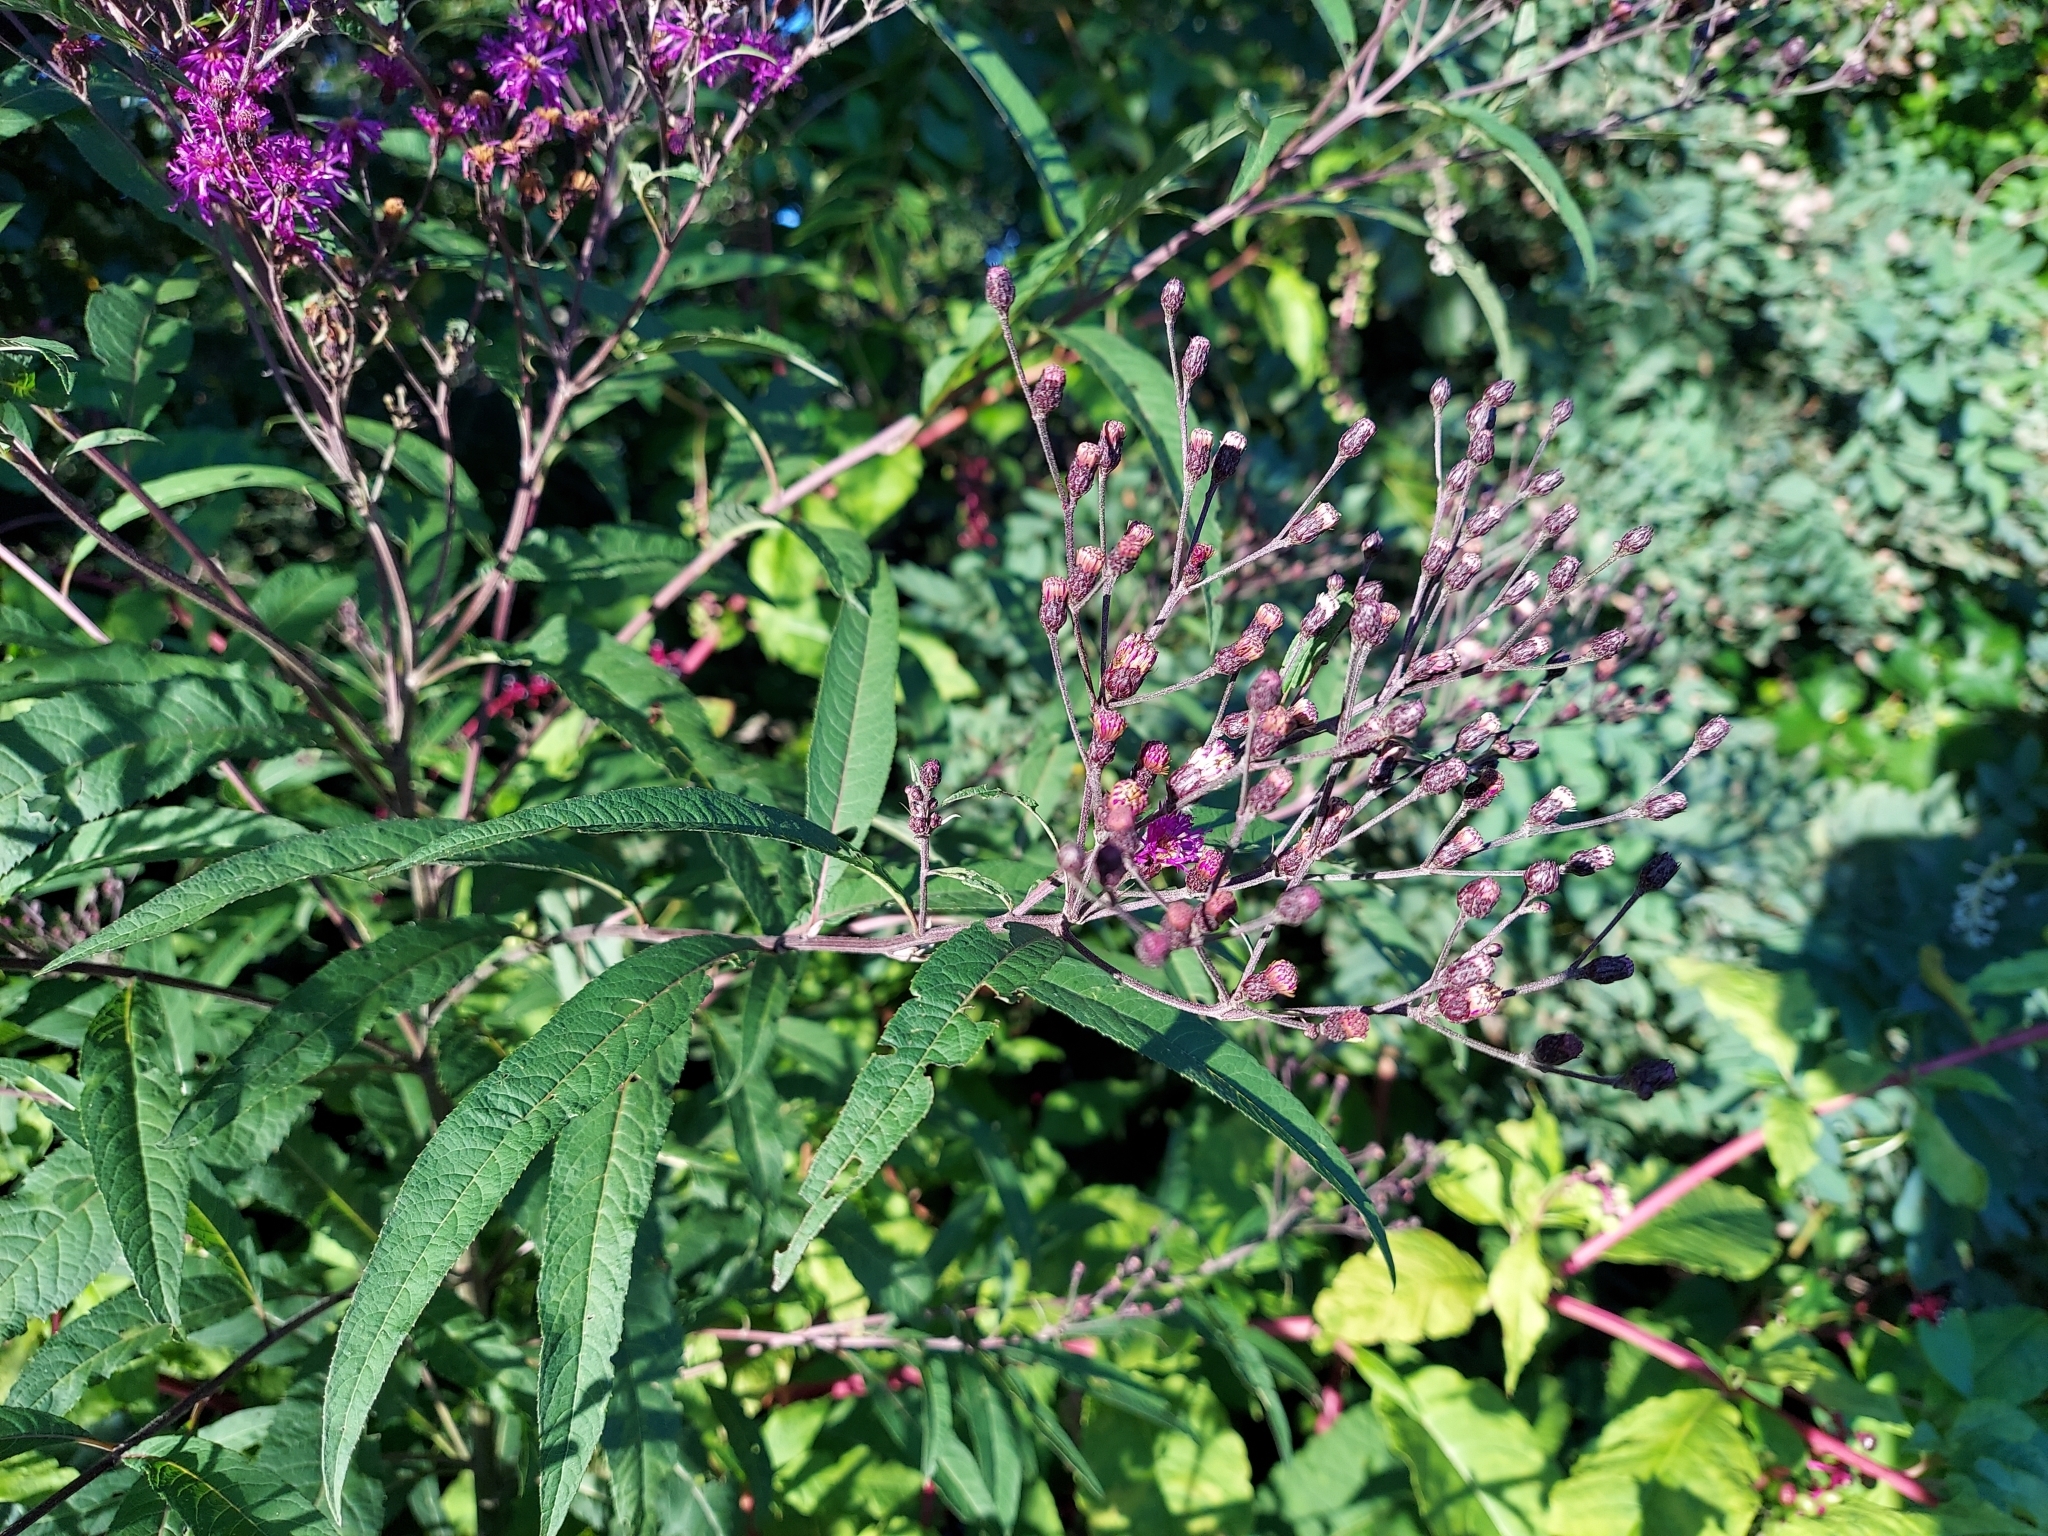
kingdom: Plantae
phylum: Tracheophyta
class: Magnoliopsida
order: Asterales
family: Asteraceae
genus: Vernonia
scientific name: Vernonia gigantea
